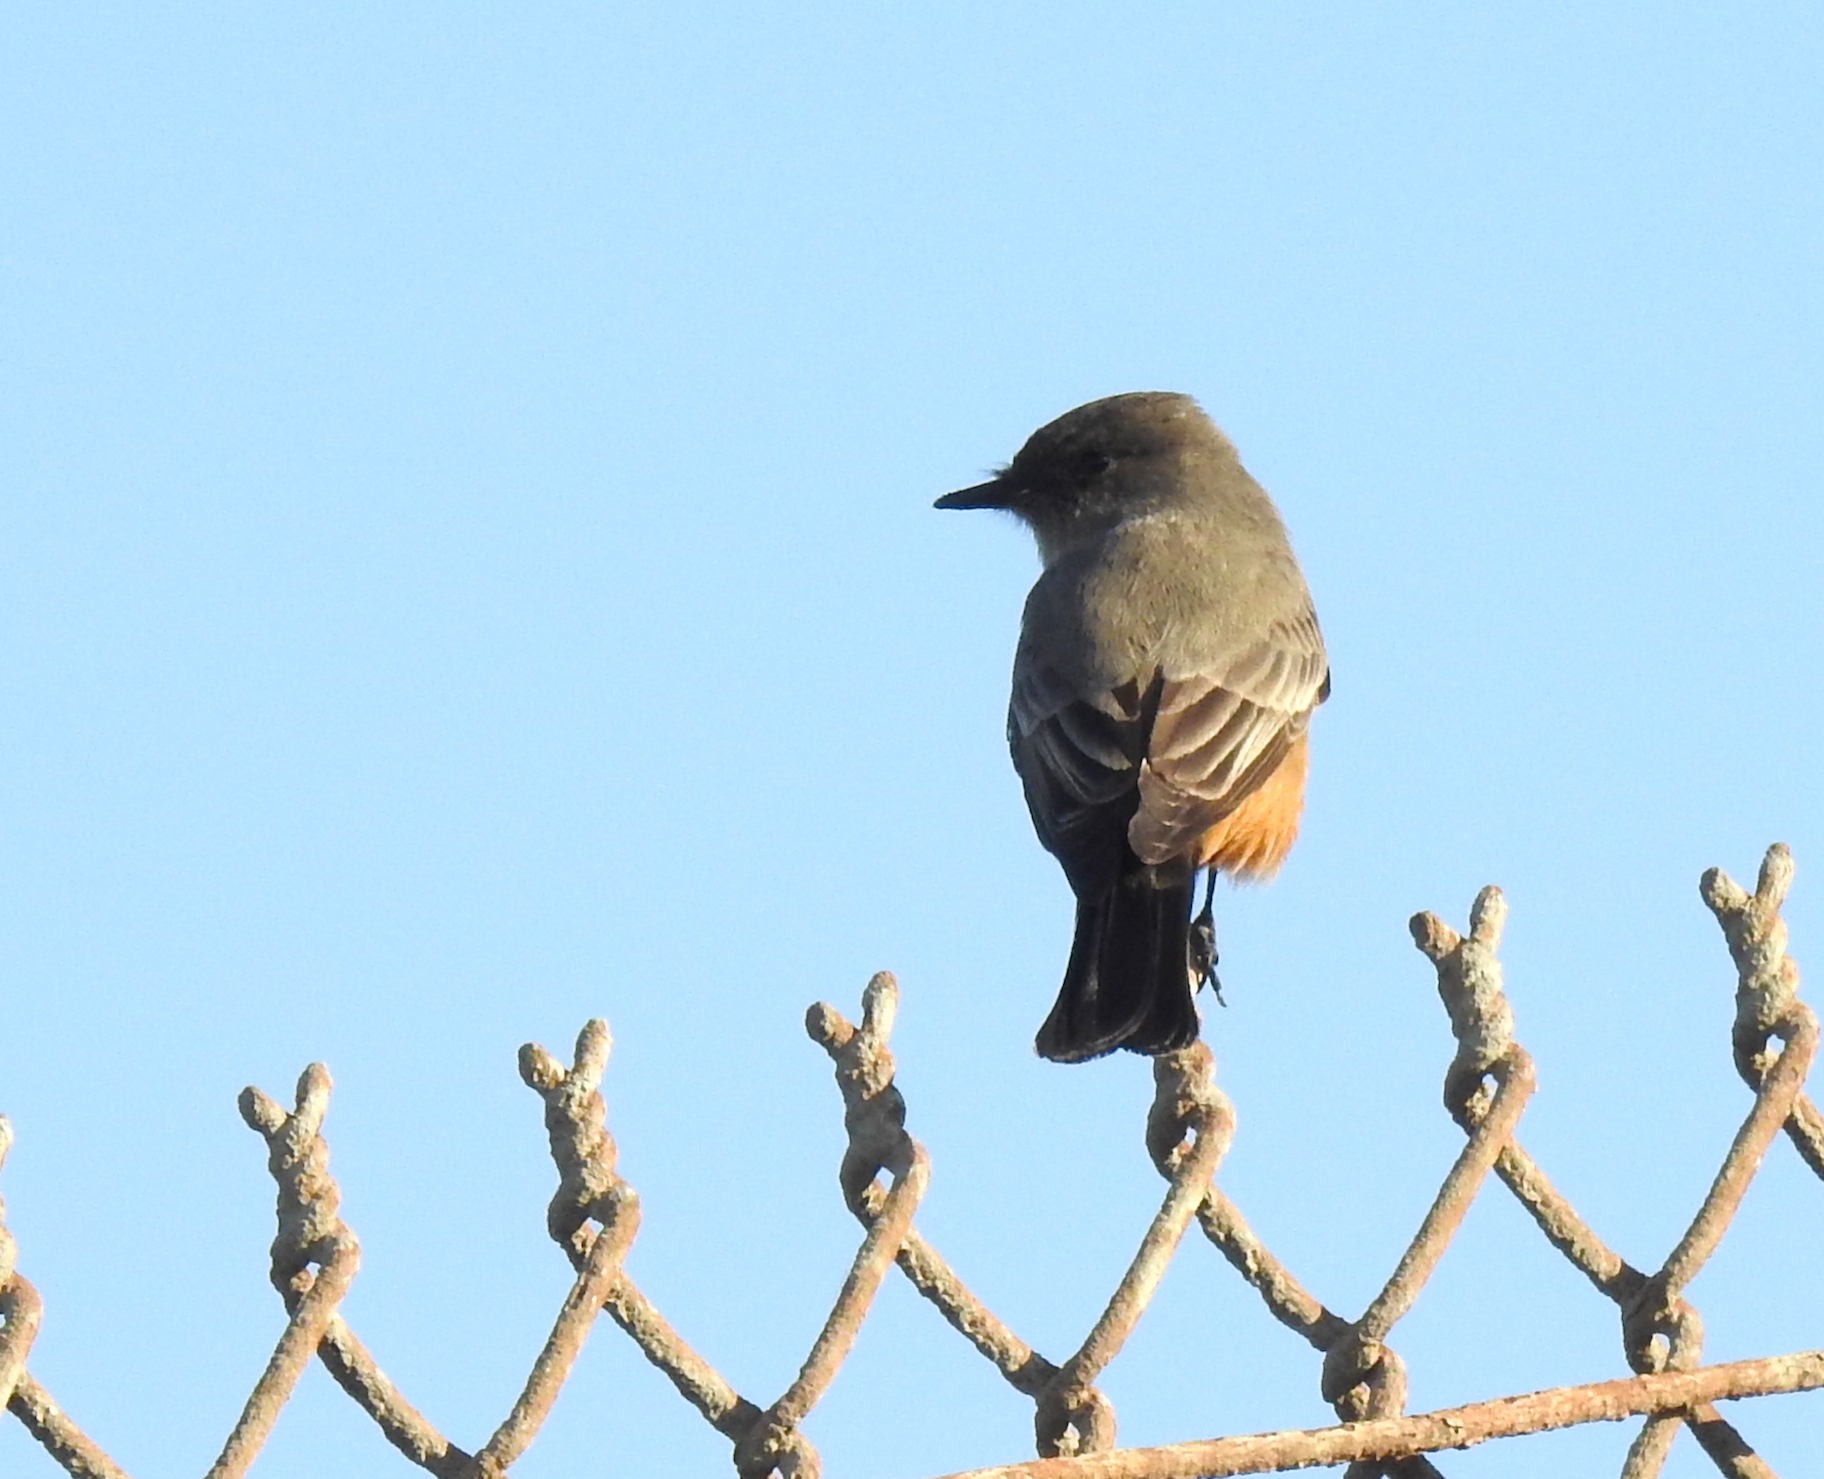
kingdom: Animalia
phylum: Chordata
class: Aves
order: Passeriformes
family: Tyrannidae
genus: Sayornis
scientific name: Sayornis saya
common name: Say's phoebe
